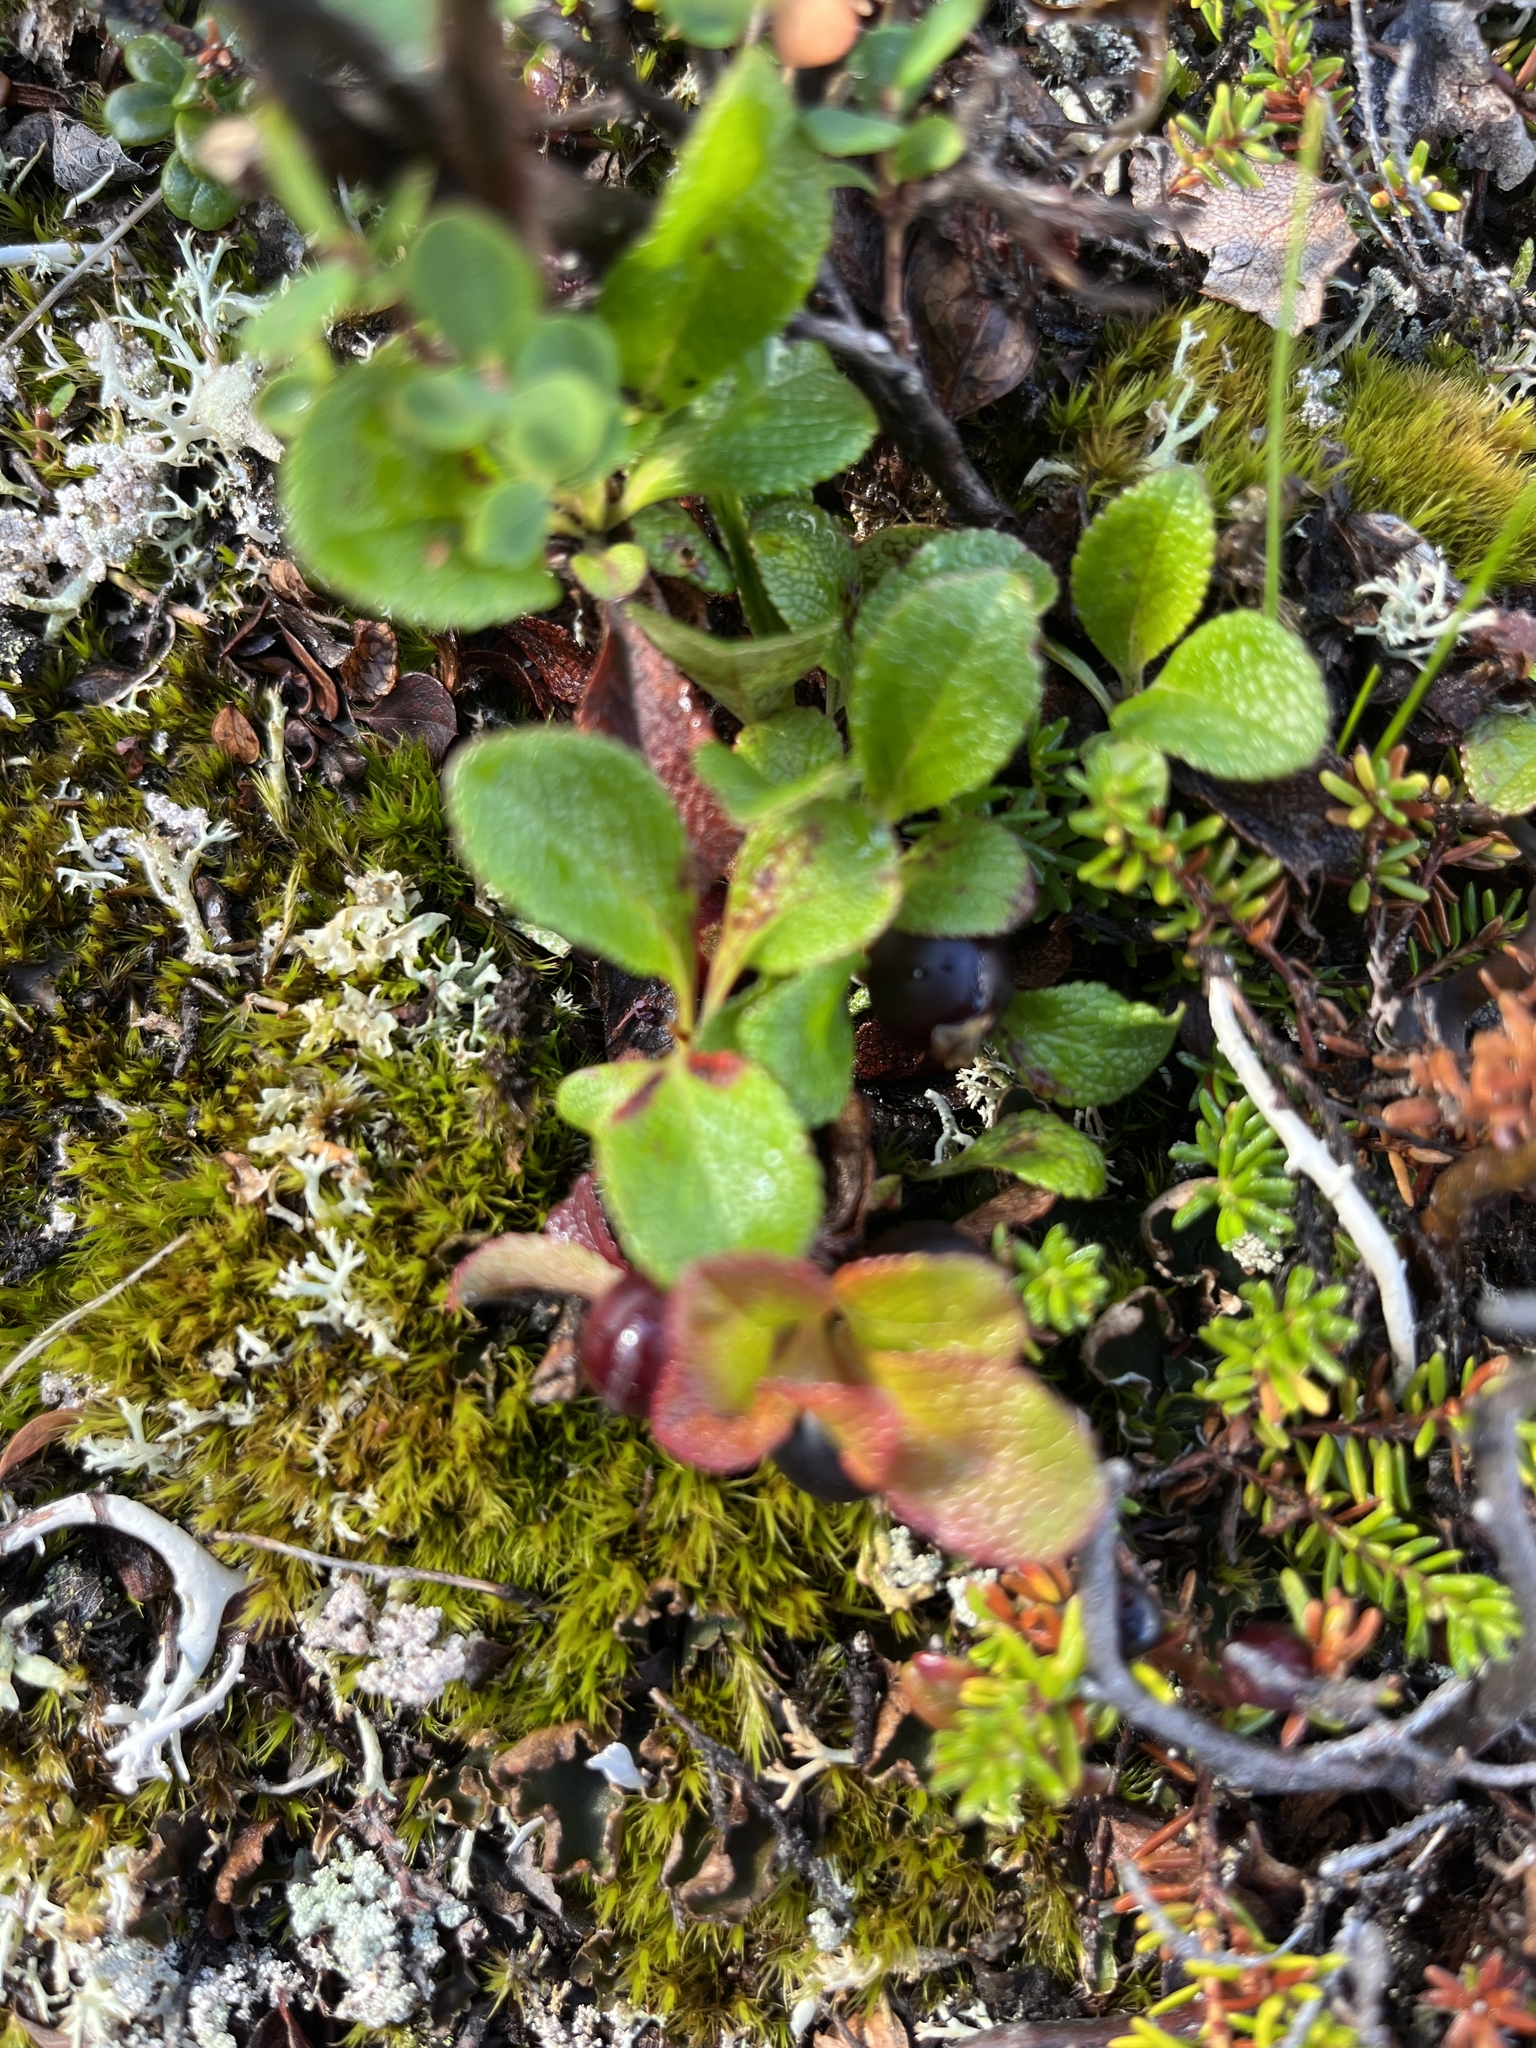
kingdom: Plantae
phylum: Tracheophyta
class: Magnoliopsida
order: Ericales
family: Ericaceae
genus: Arctostaphylos
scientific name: Arctostaphylos alpinus
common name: Alpine bearberry
